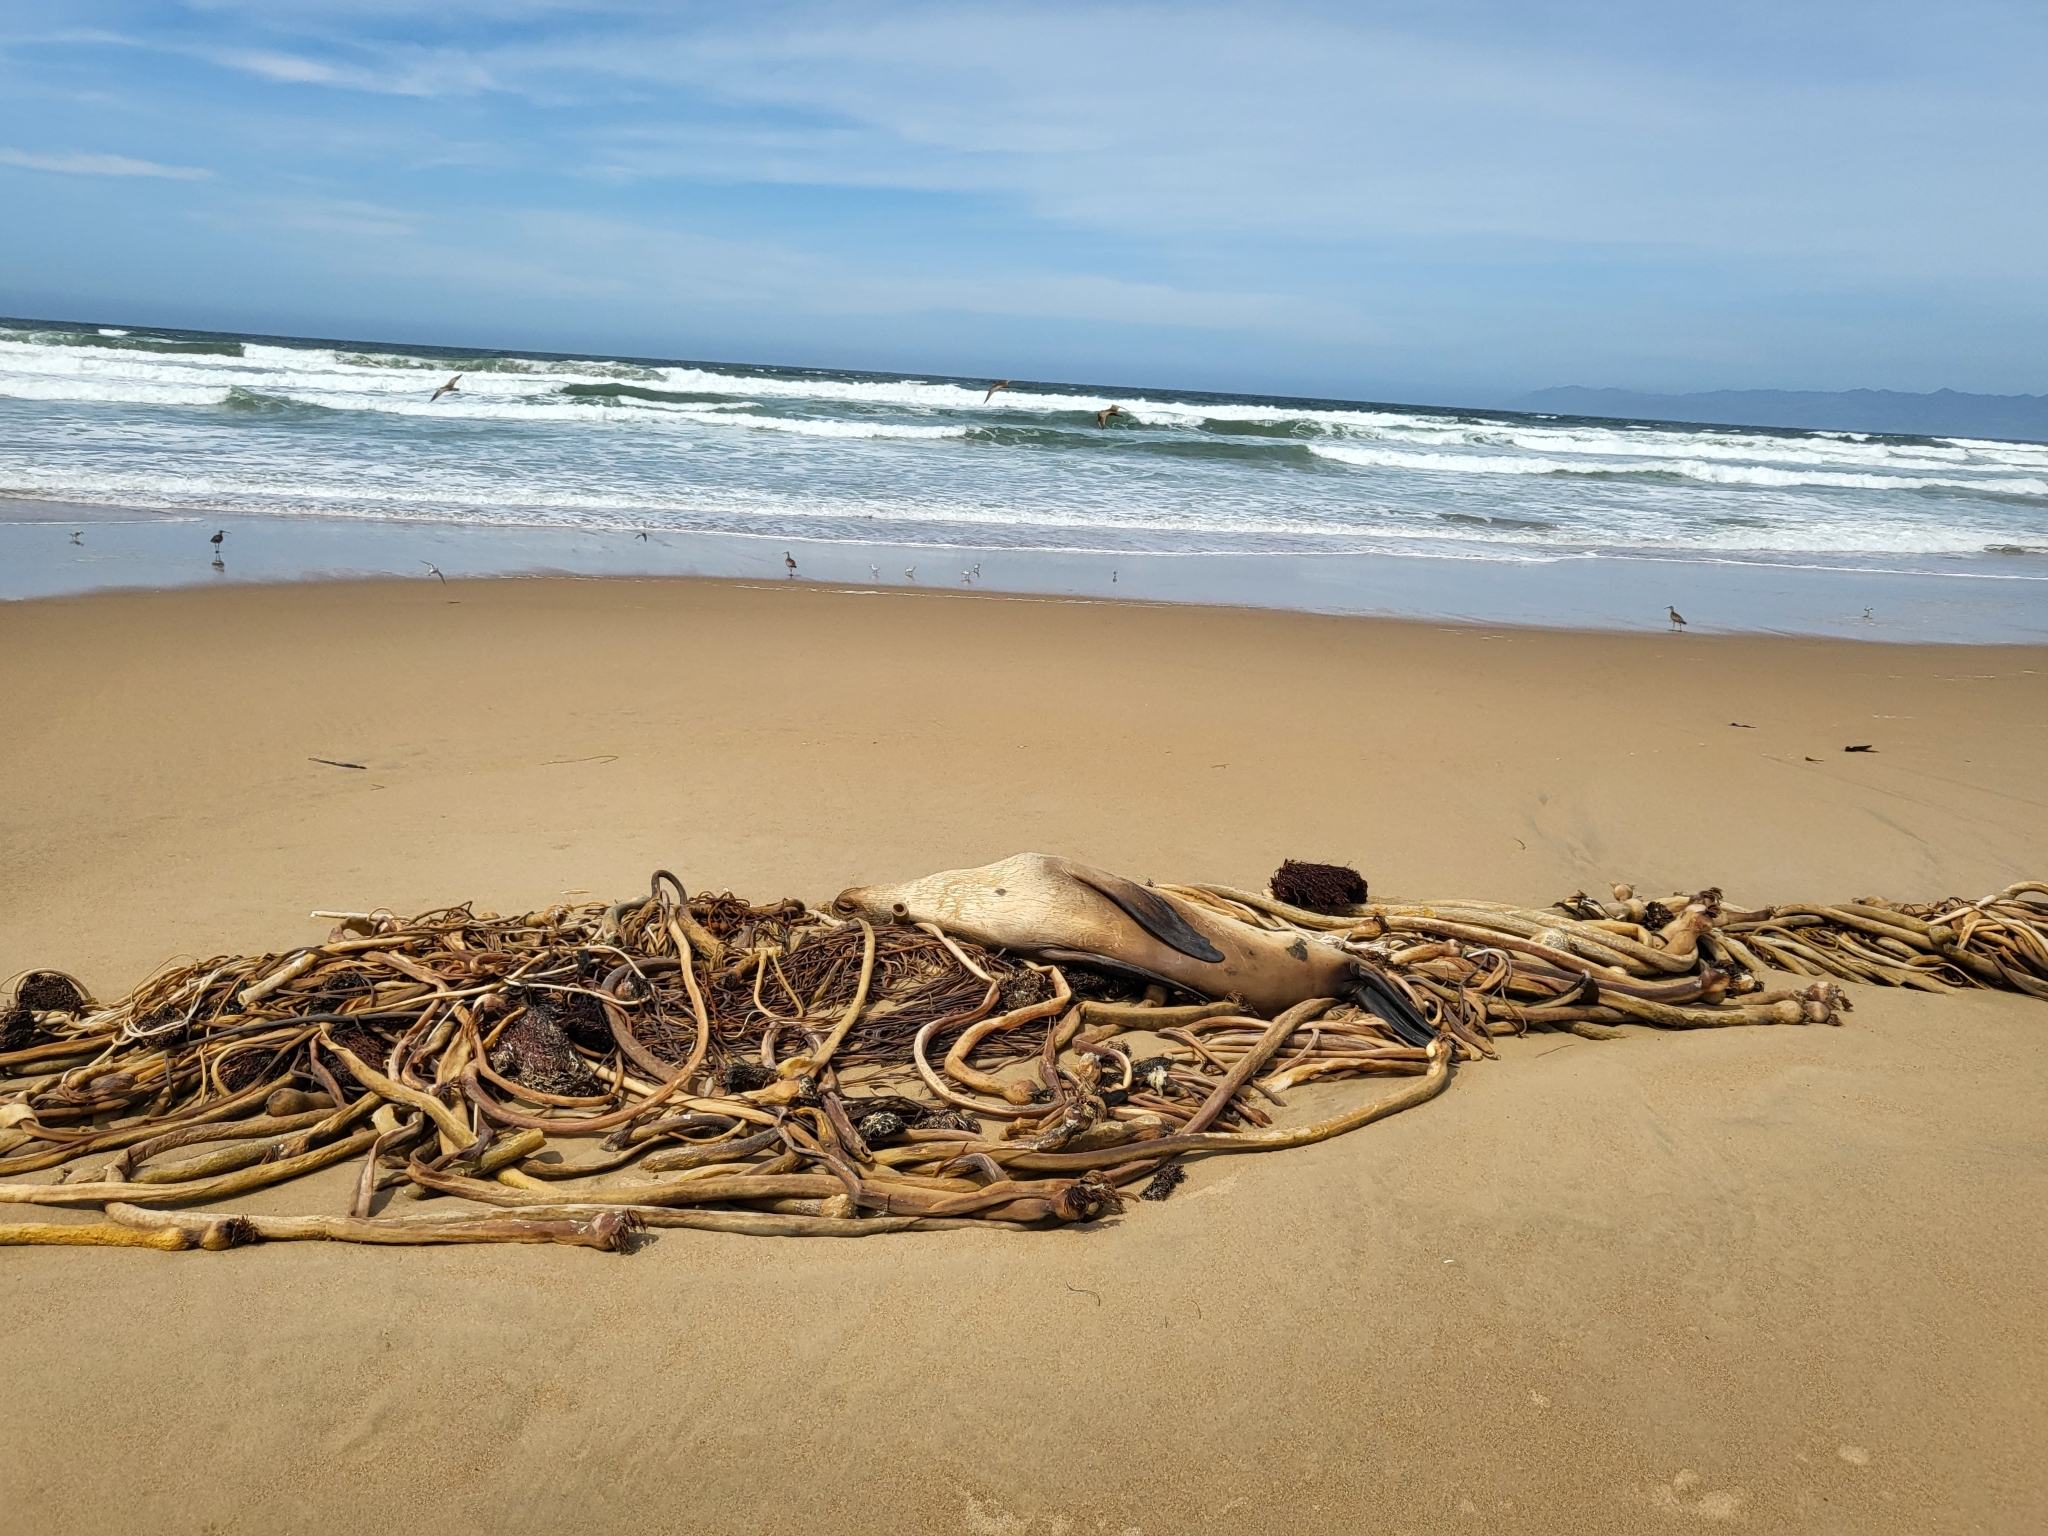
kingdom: Animalia
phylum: Chordata
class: Mammalia
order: Carnivora
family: Otariidae
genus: Zalophus
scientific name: Zalophus californianus
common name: California sea lion
